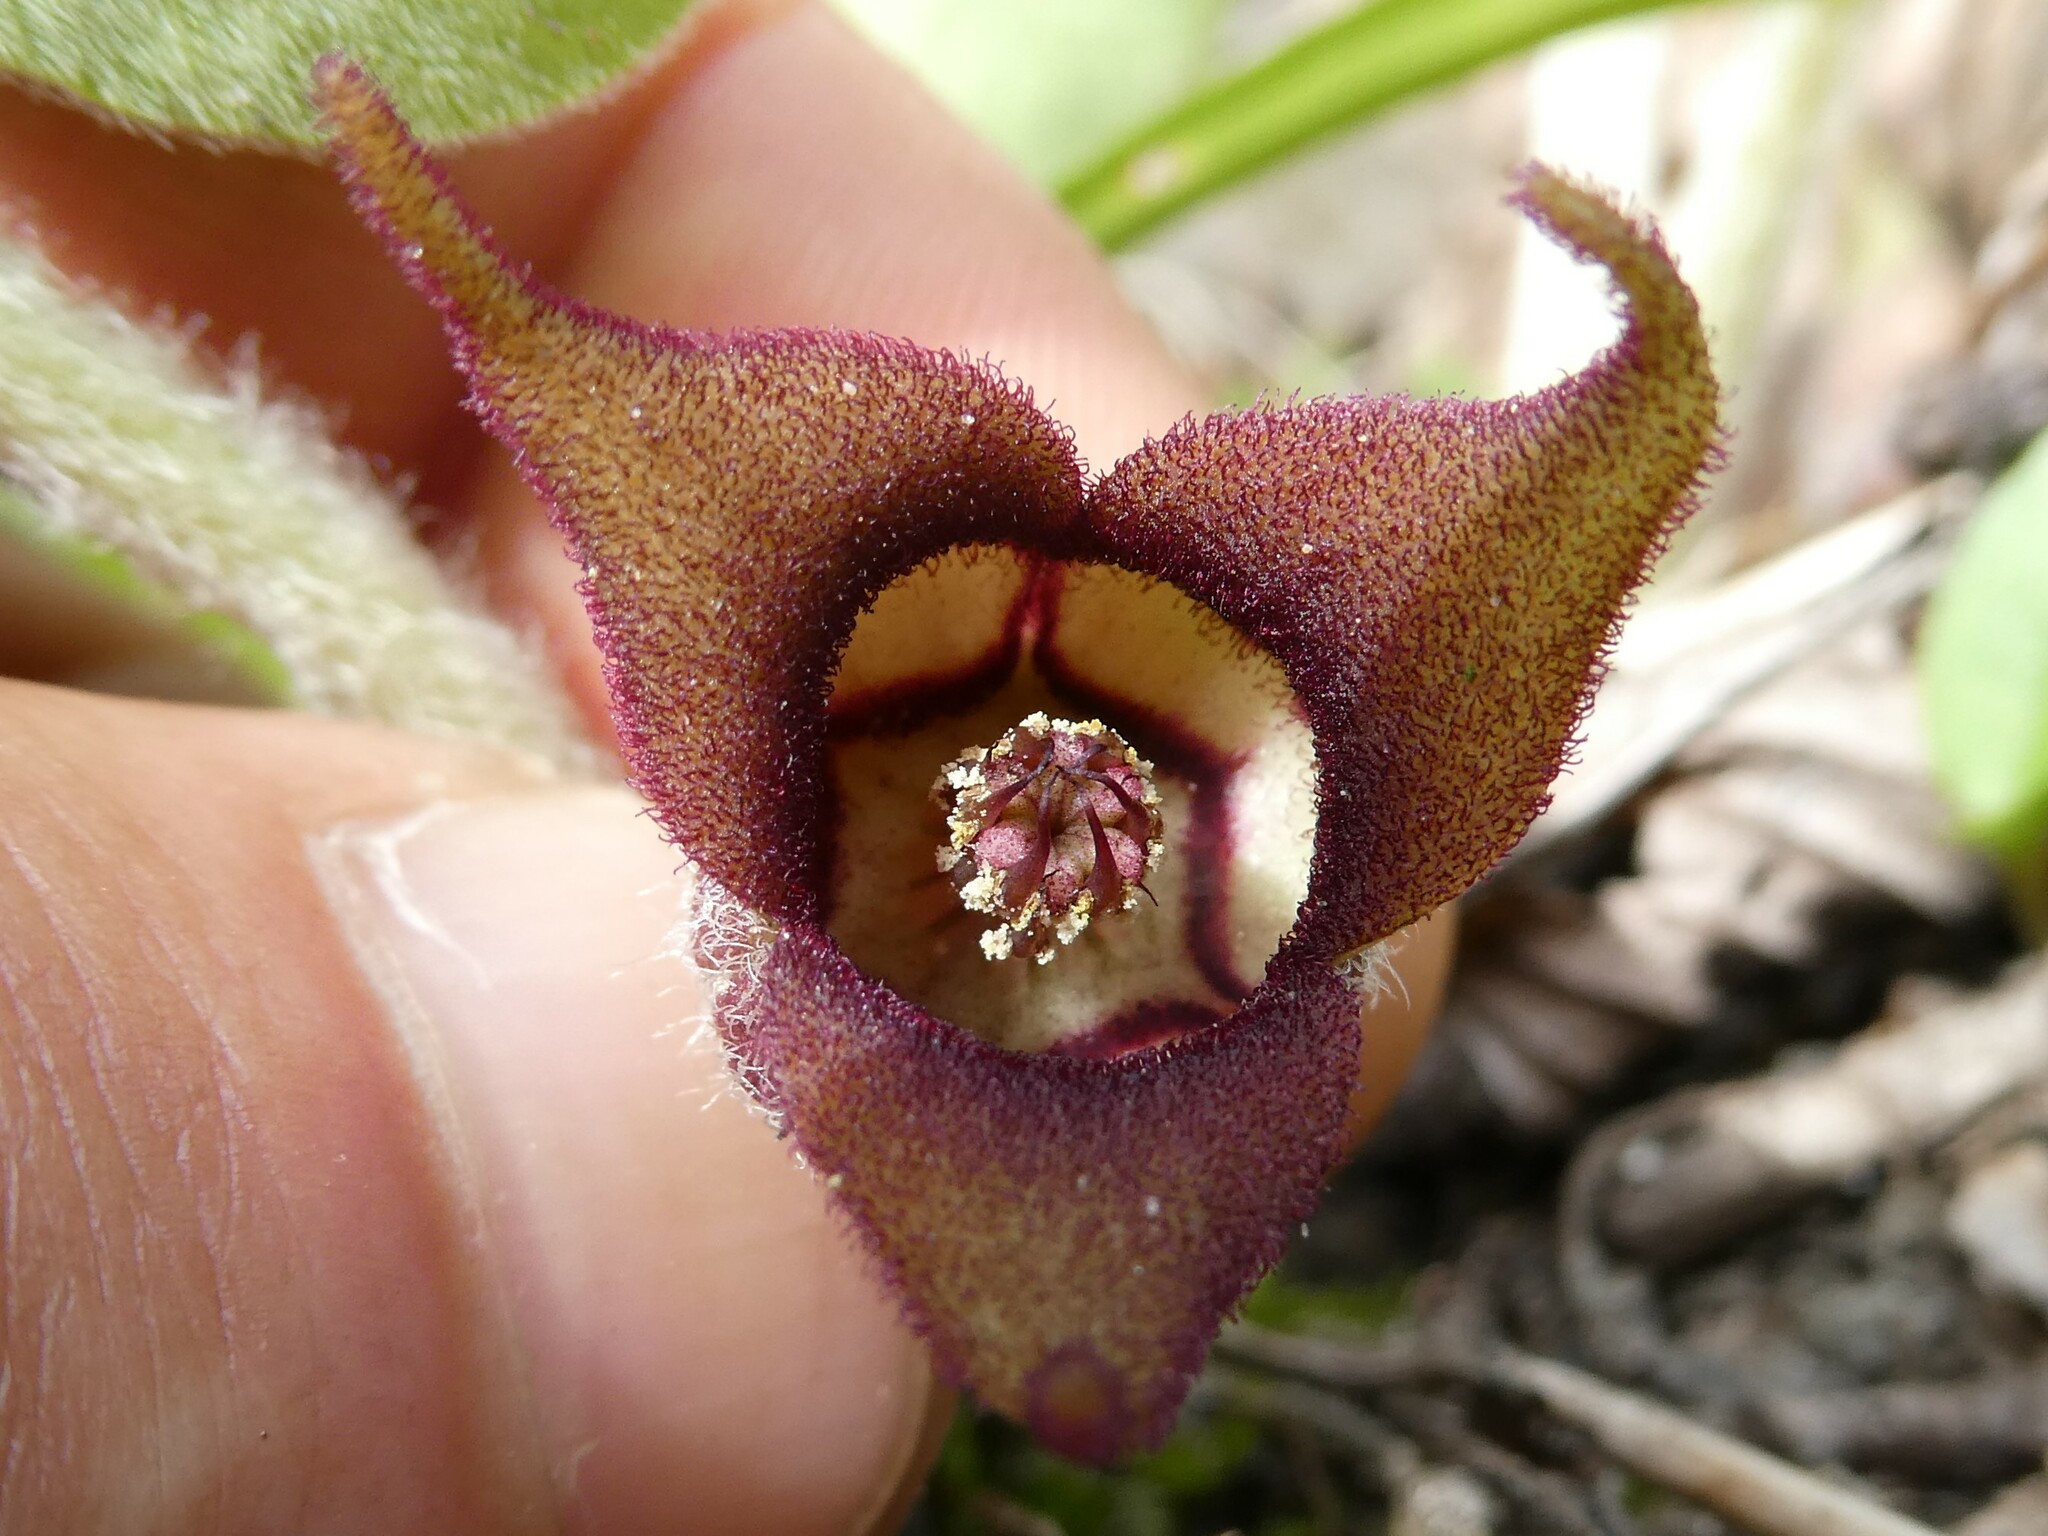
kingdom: Plantae
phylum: Tracheophyta
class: Magnoliopsida
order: Piperales
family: Aristolochiaceae
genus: Asarum
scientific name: Asarum canadense
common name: Wild ginger
